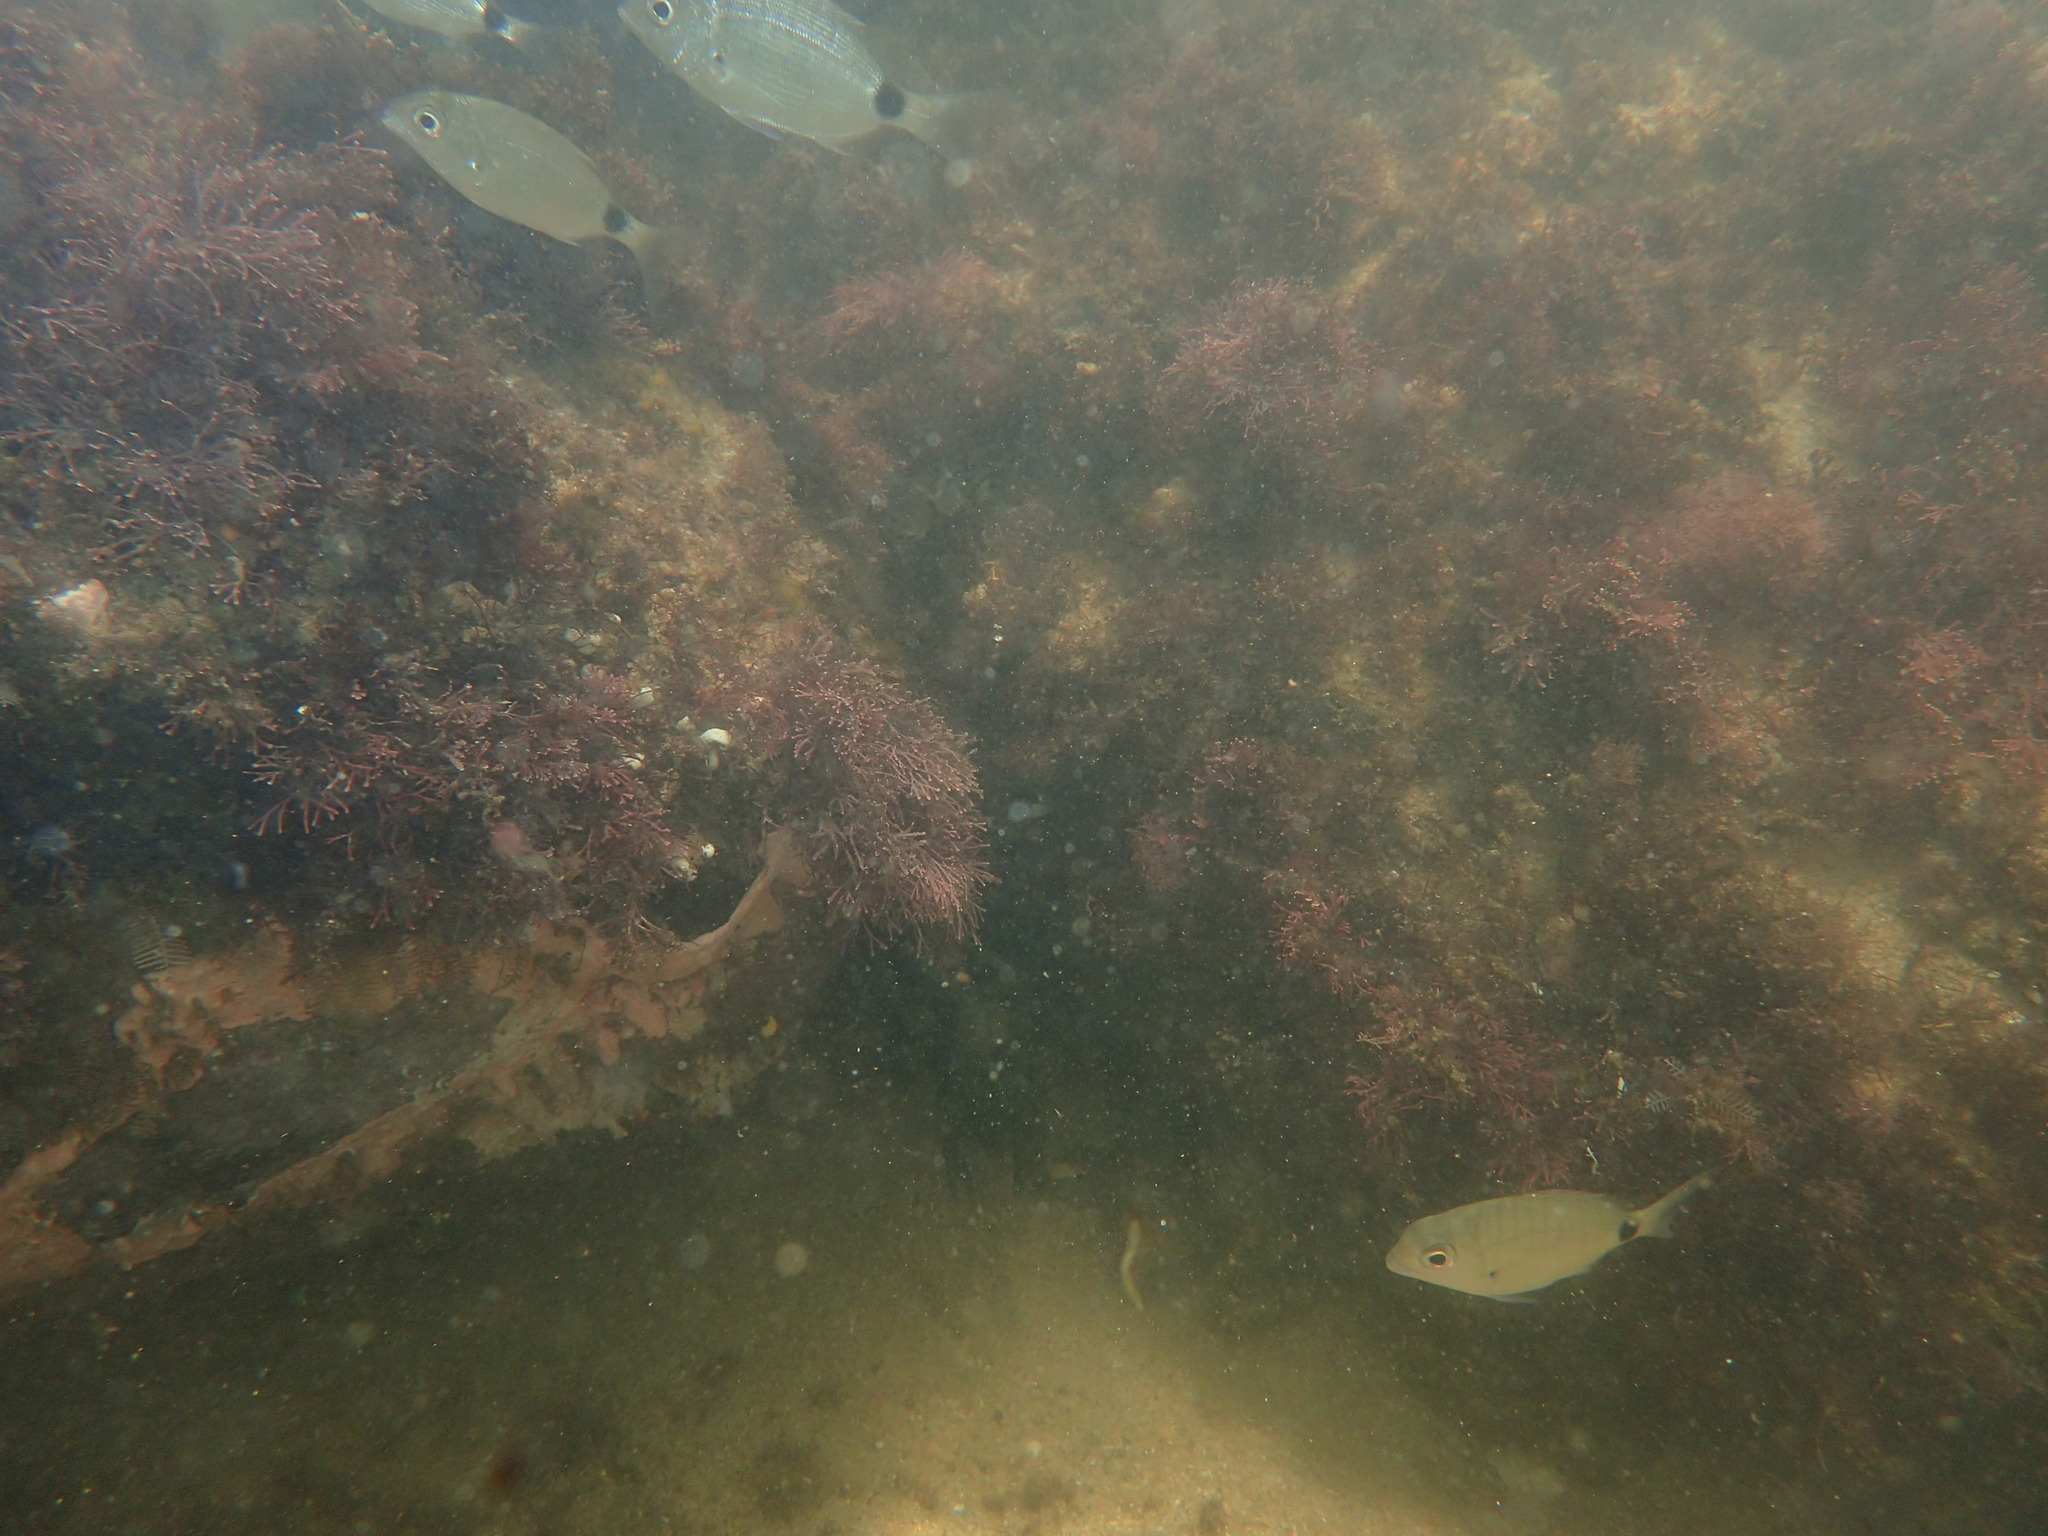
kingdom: Animalia
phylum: Chordata
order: Perciformes
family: Sparidae
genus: Diplodus
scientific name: Diplodus capensis
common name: Blacktail
